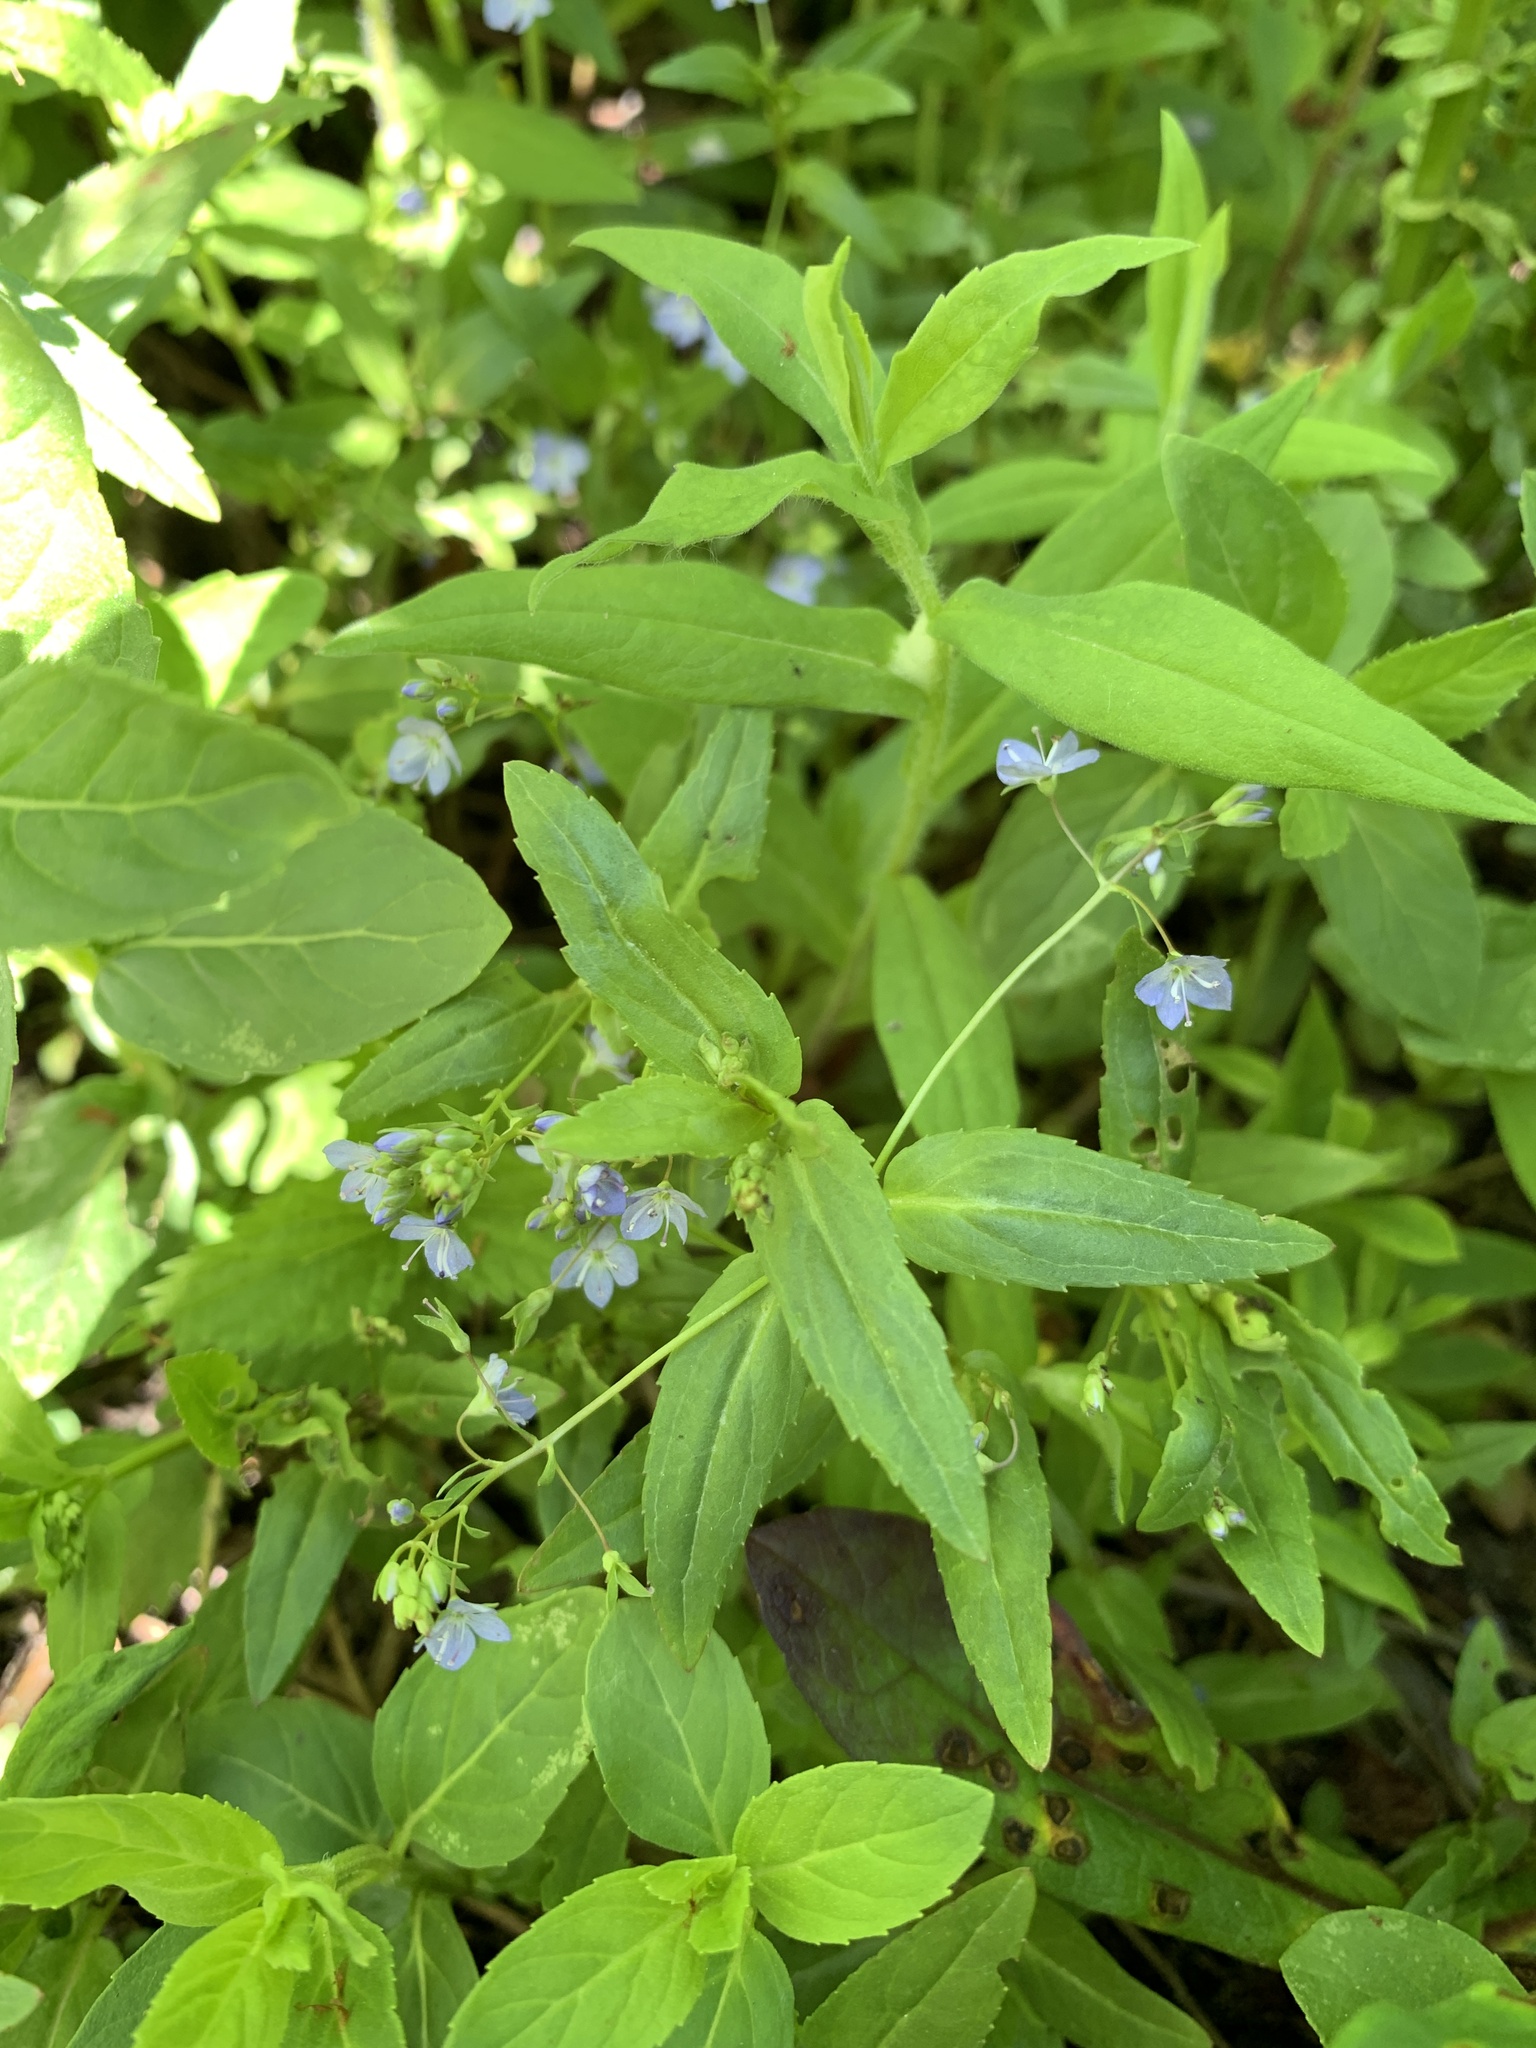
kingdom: Plantae
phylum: Tracheophyta
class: Magnoliopsida
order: Lamiales
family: Plantaginaceae
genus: Veronica
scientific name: Veronica americana
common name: American brooklime
